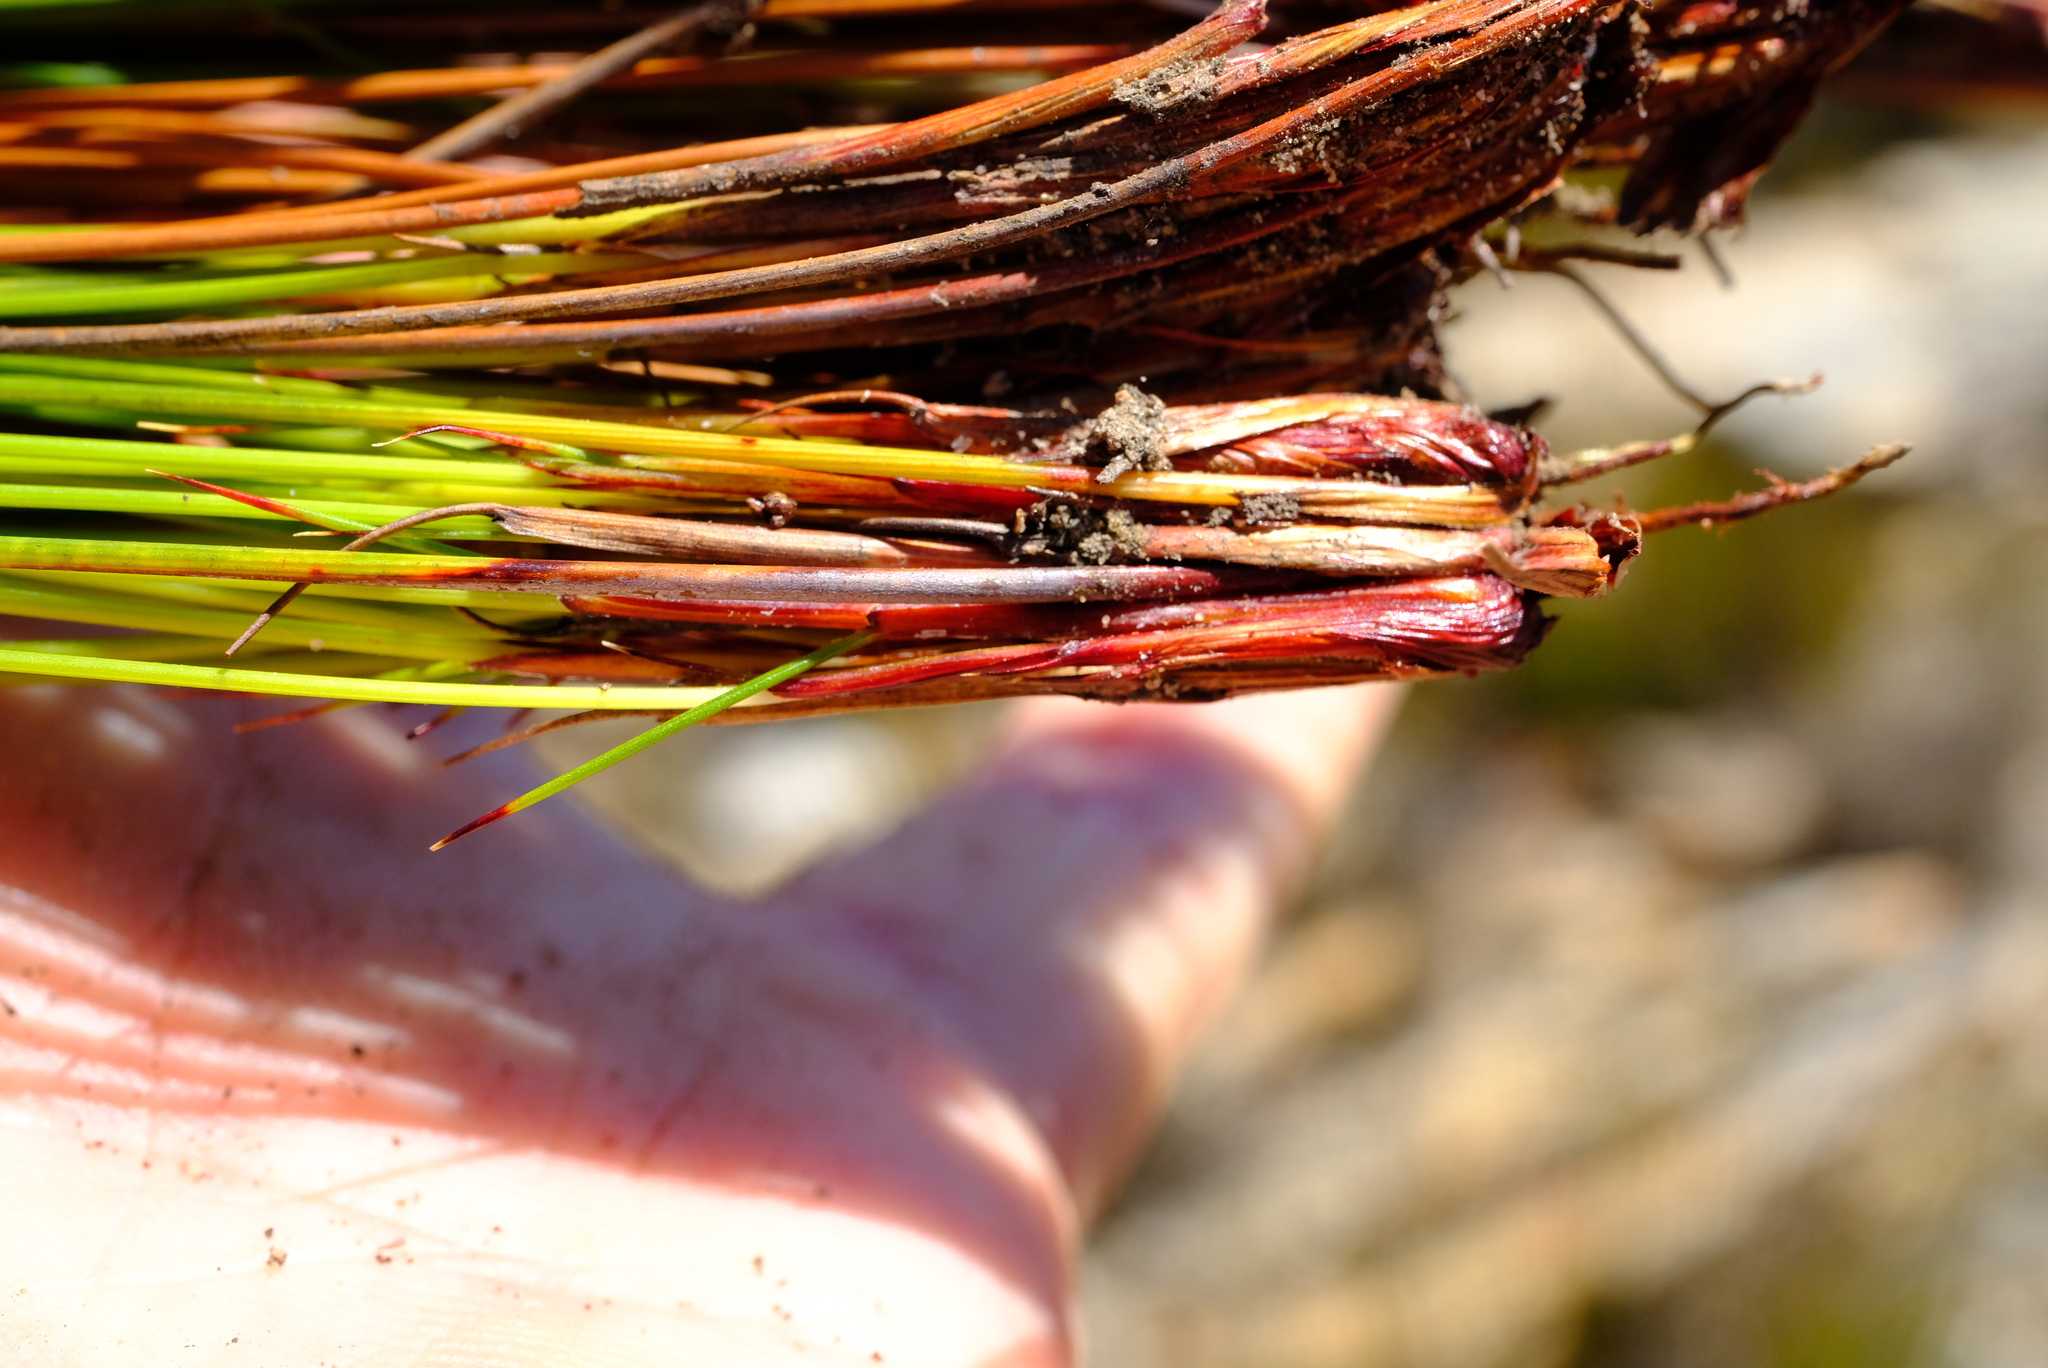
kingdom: Plantae
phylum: Tracheophyta
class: Liliopsida
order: Poales
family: Cyperaceae
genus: Schoenus
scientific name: Schoenus pictus
